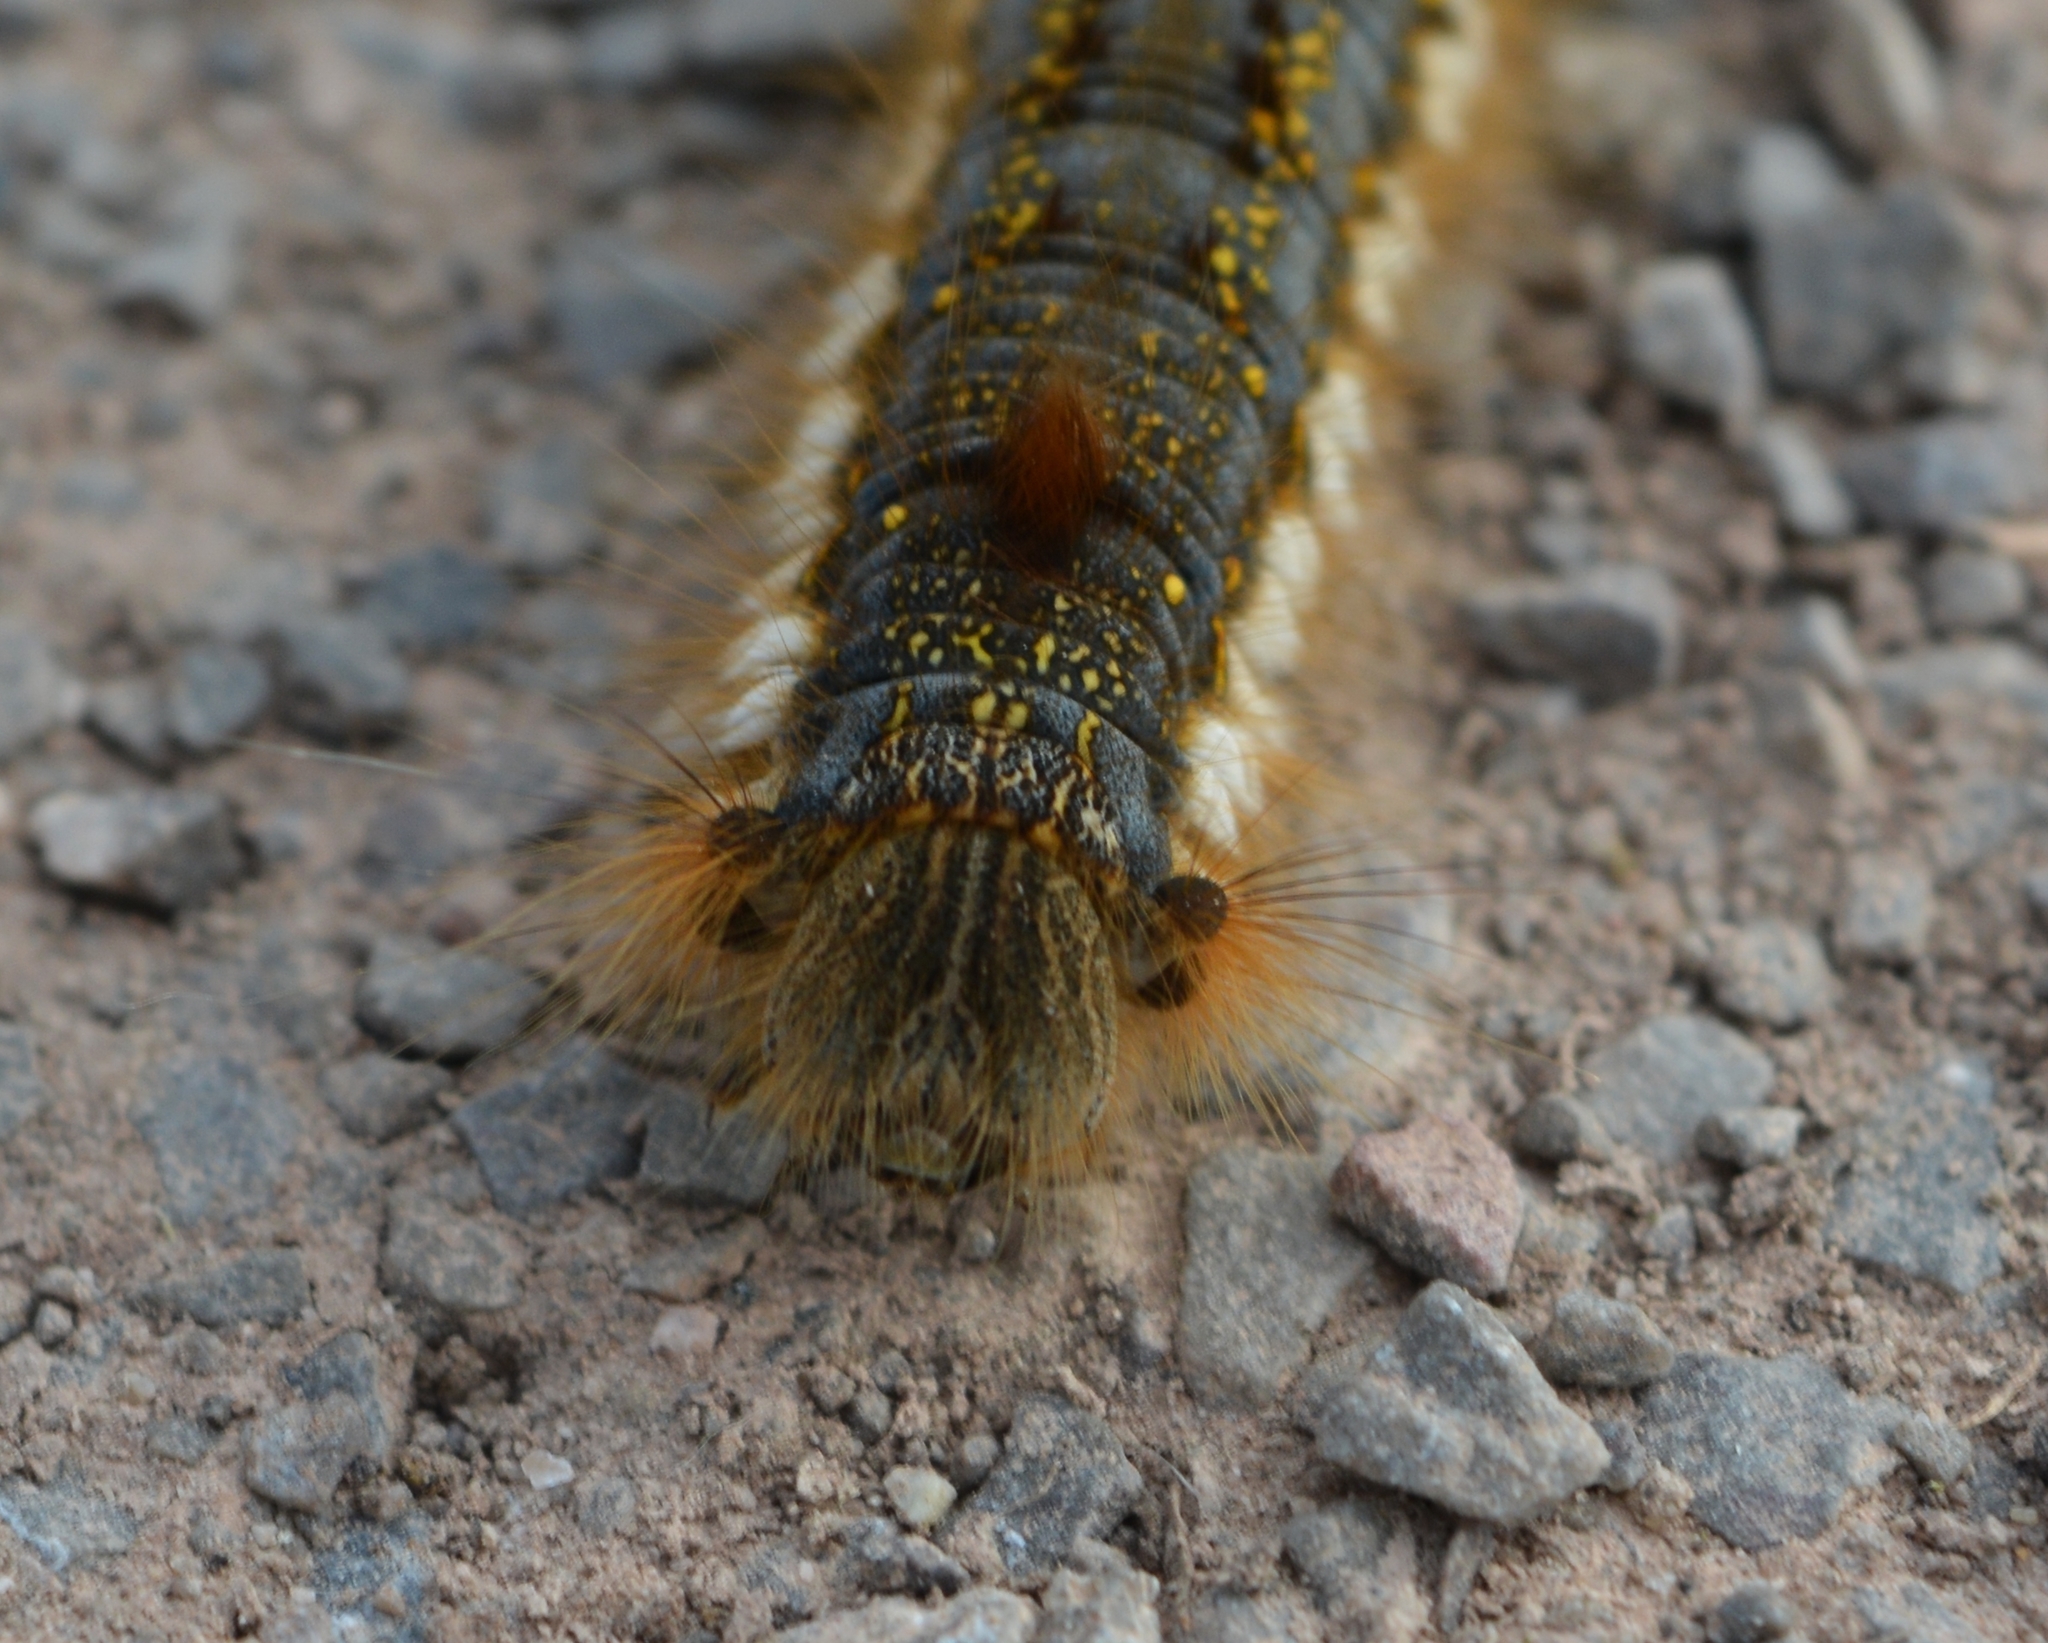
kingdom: Animalia
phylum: Arthropoda
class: Insecta
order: Lepidoptera
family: Lasiocampidae
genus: Euthrix
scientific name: Euthrix potatoria
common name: Drinker
